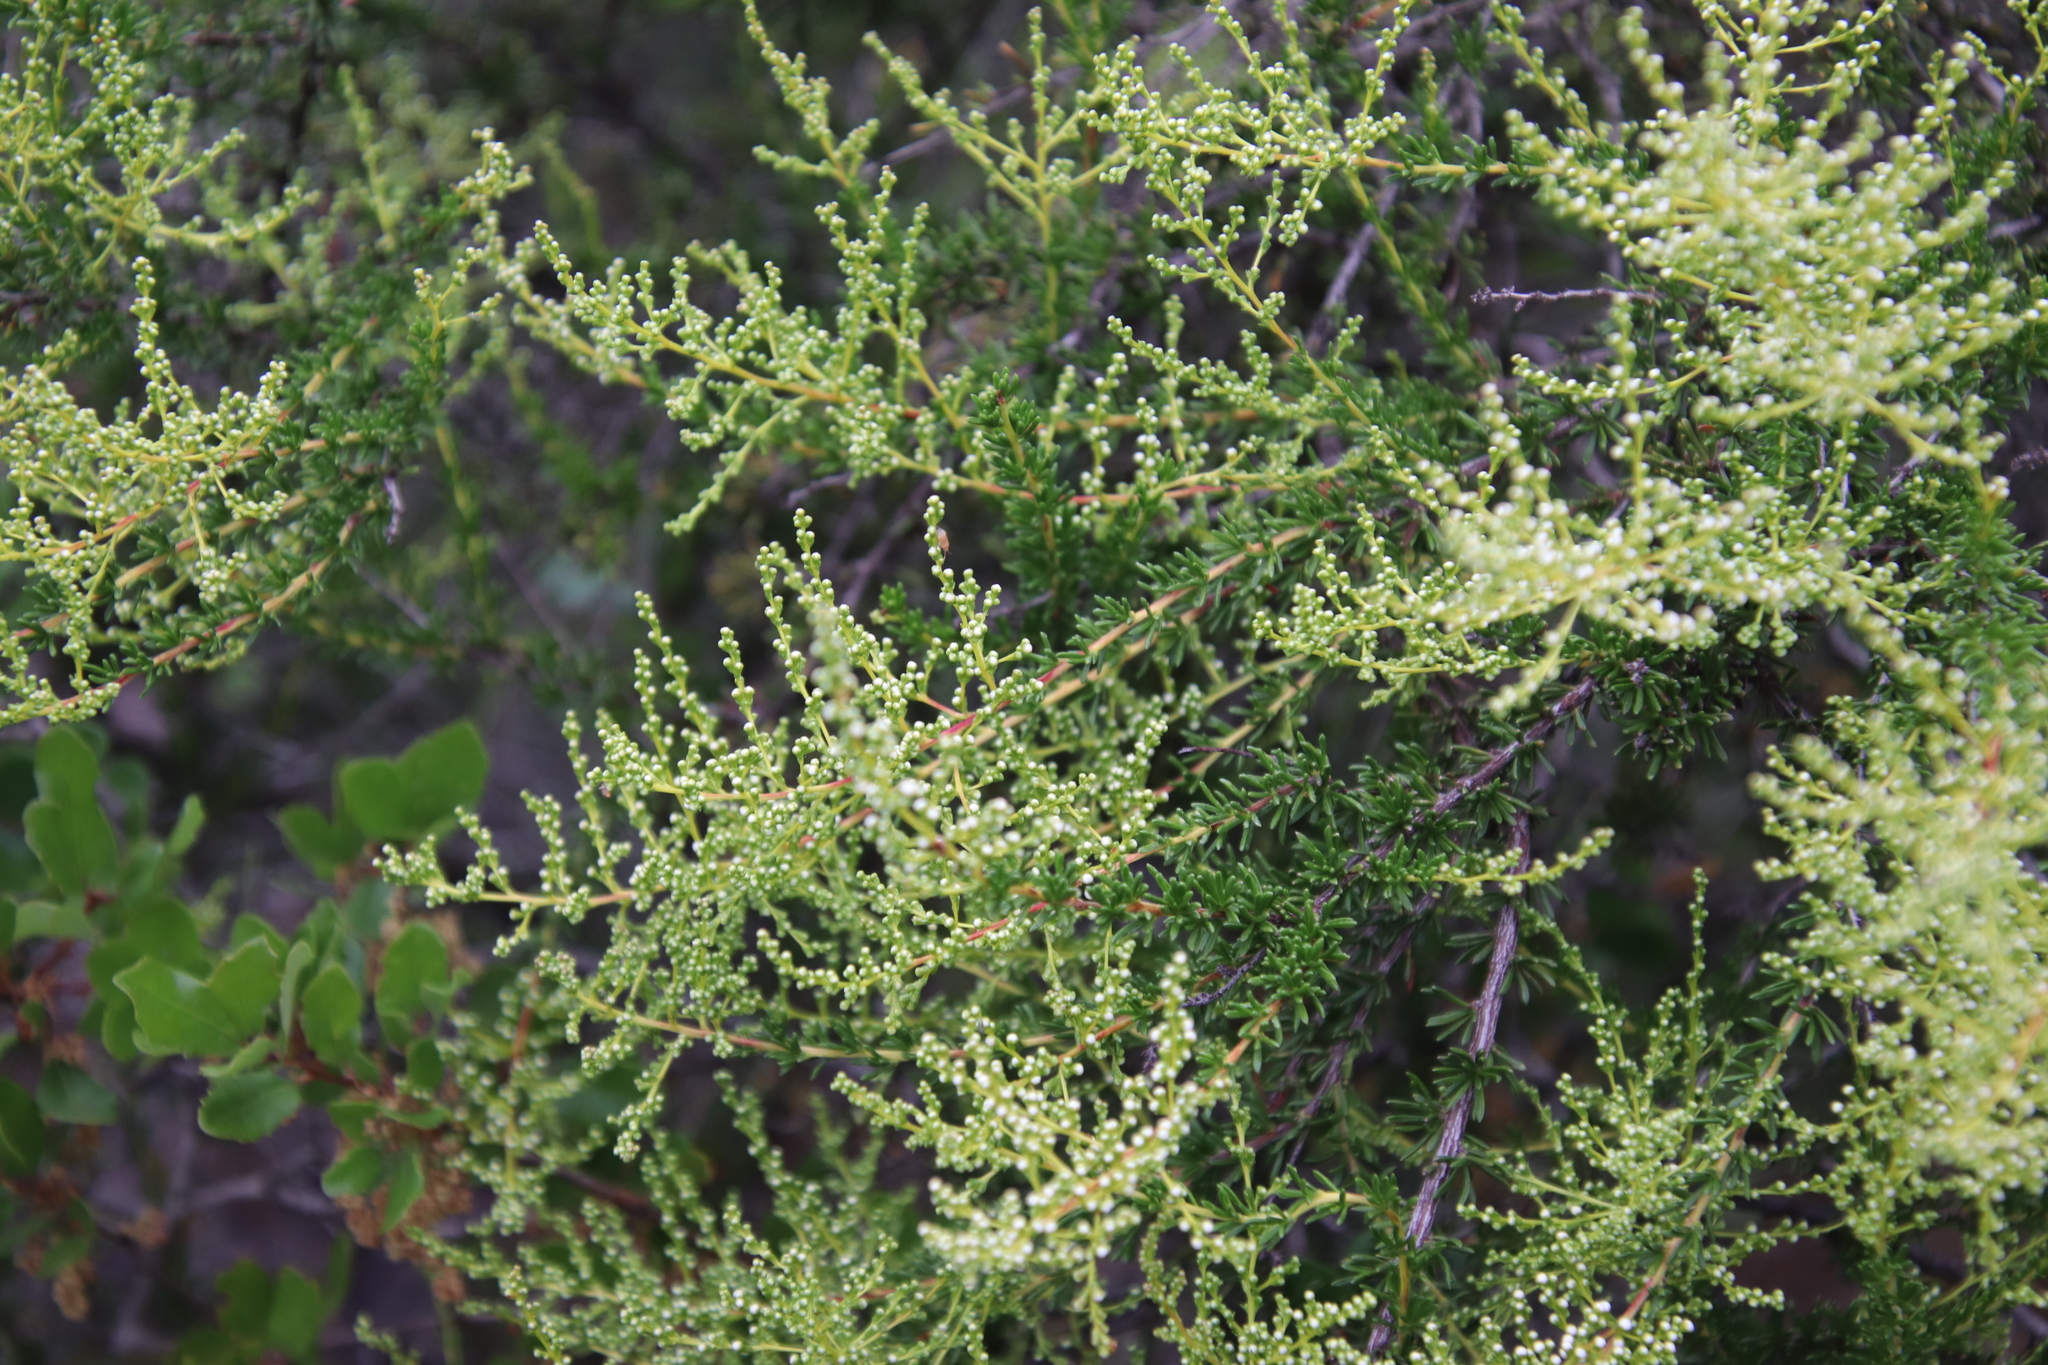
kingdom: Plantae
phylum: Tracheophyta
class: Magnoliopsida
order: Rosales
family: Rosaceae
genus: Adenostoma
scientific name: Adenostoma fasciculatum
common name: Chamise
